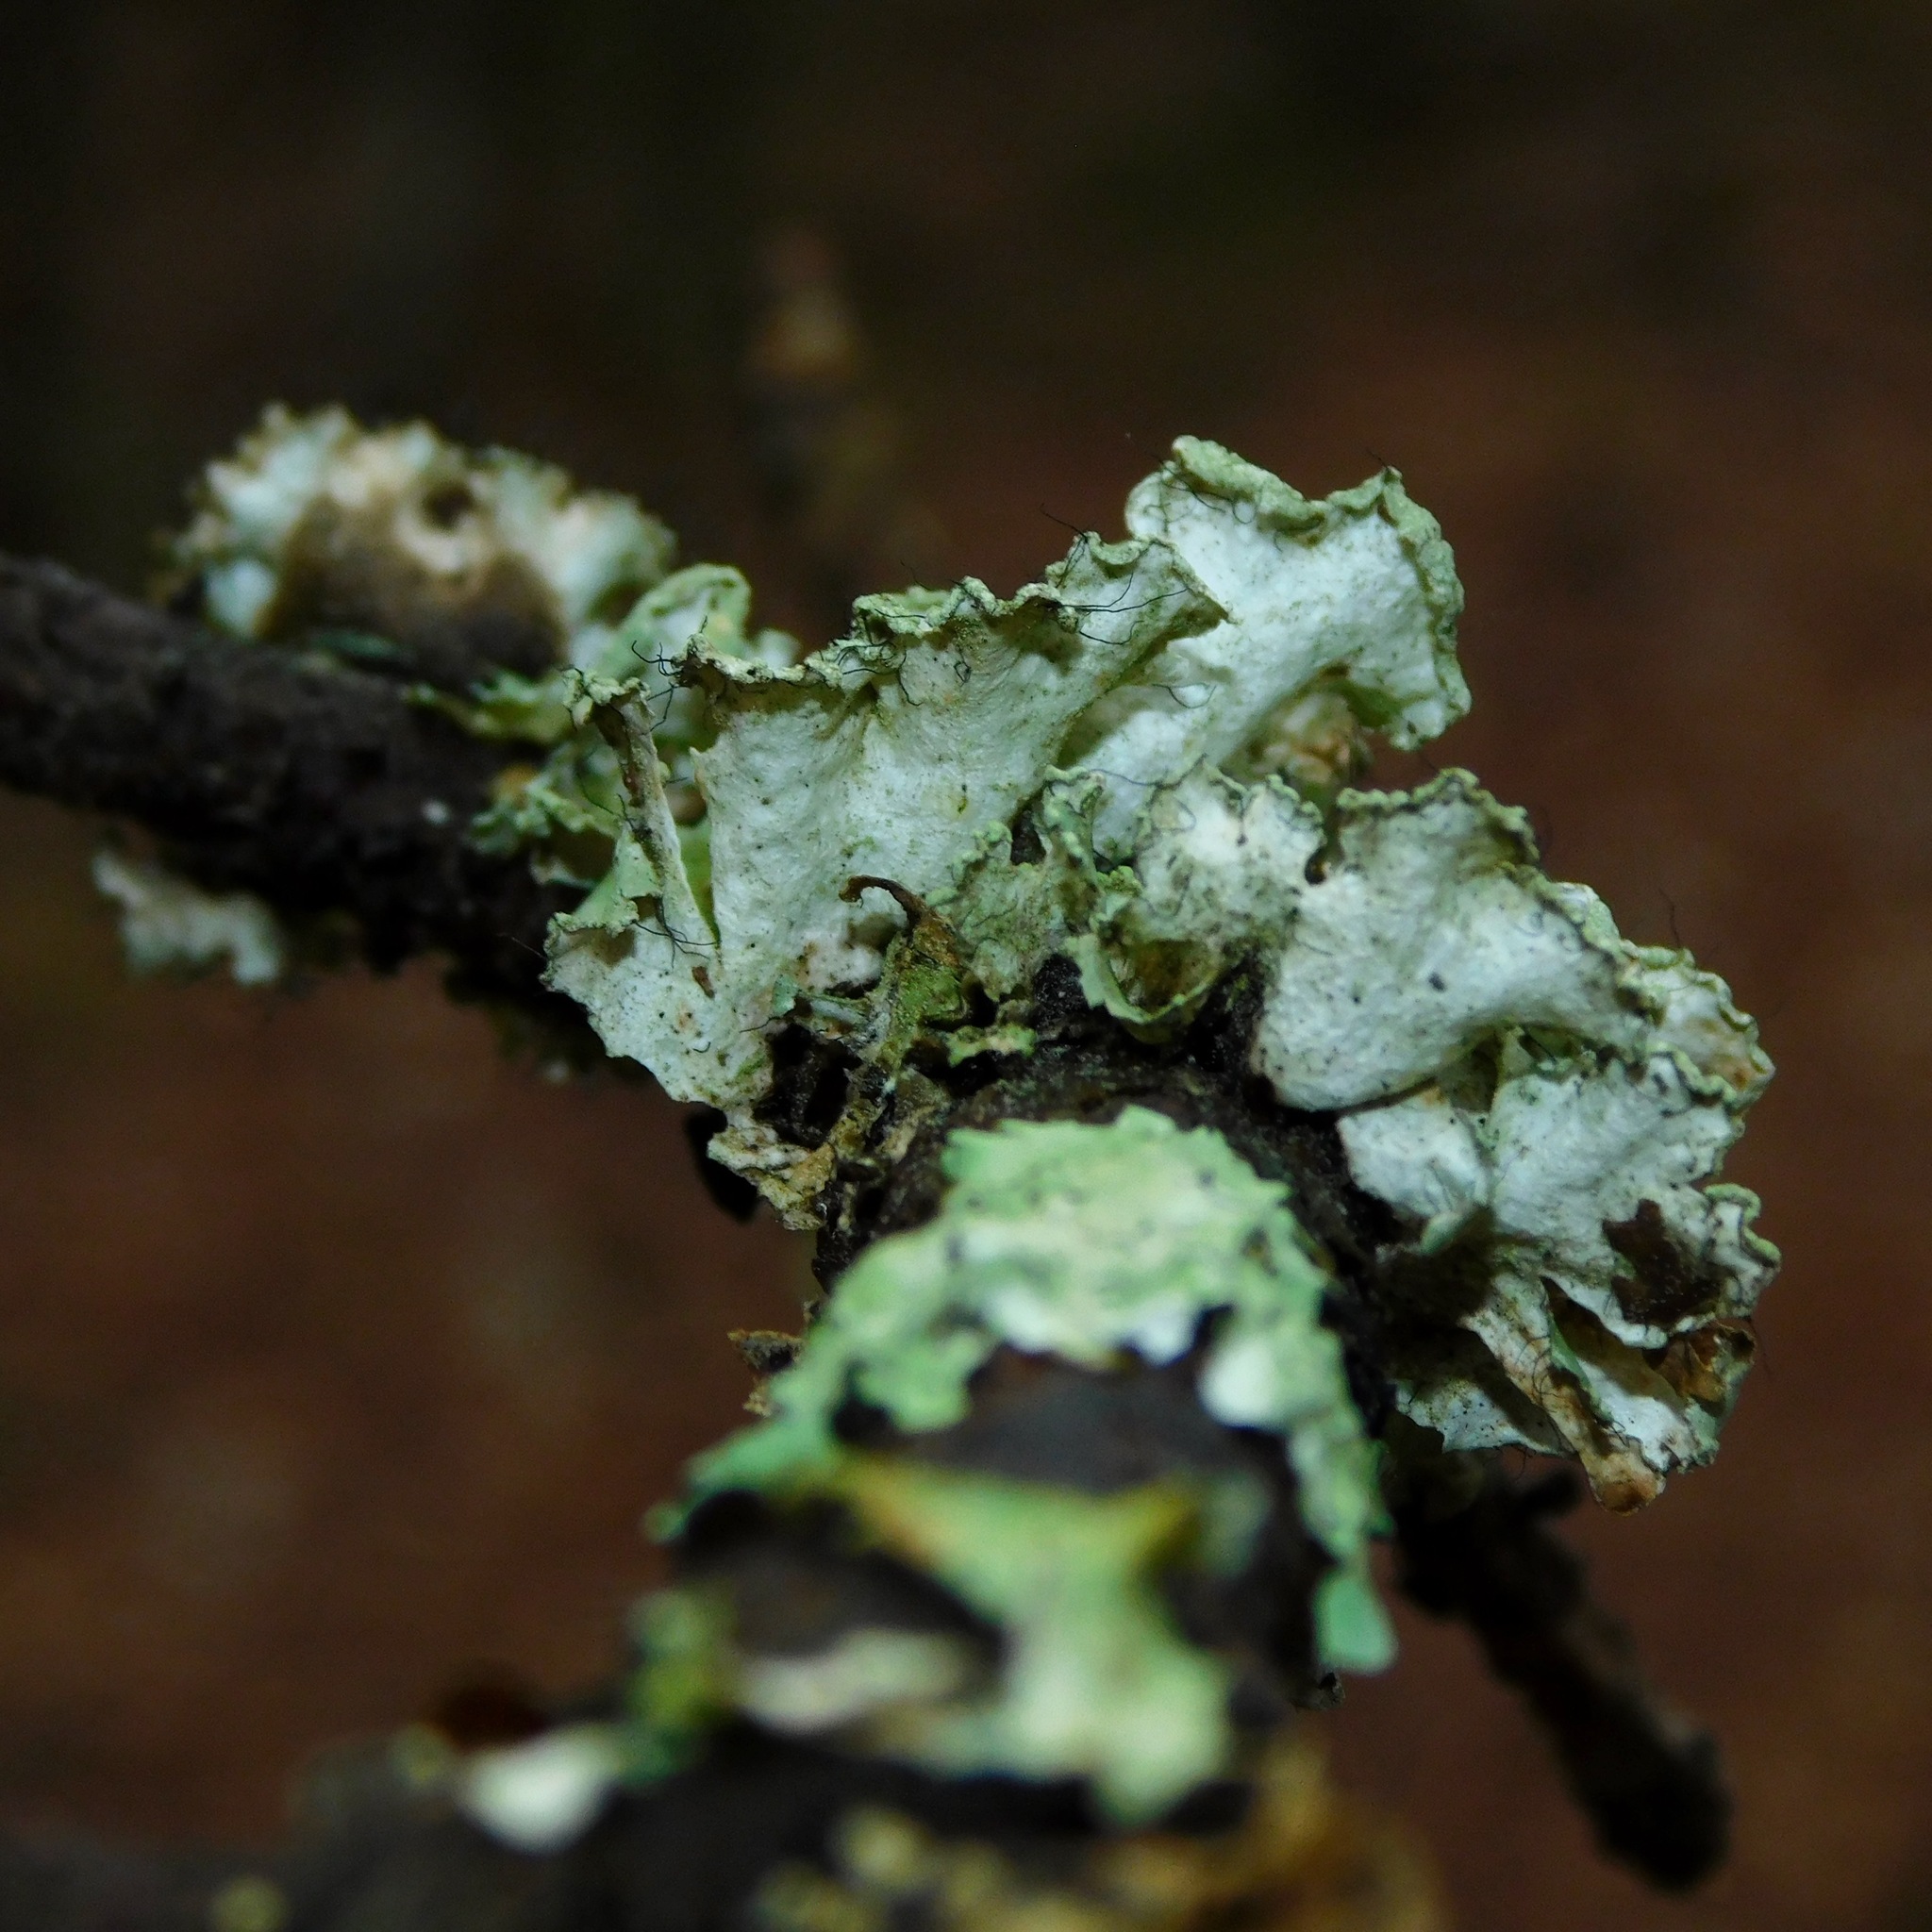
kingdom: Fungi
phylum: Ascomycota
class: Lecanoromycetes
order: Lecanorales
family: Parmeliaceae
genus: Parmotrema
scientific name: Parmotrema hypotropum
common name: Powdered ruffle lichen
